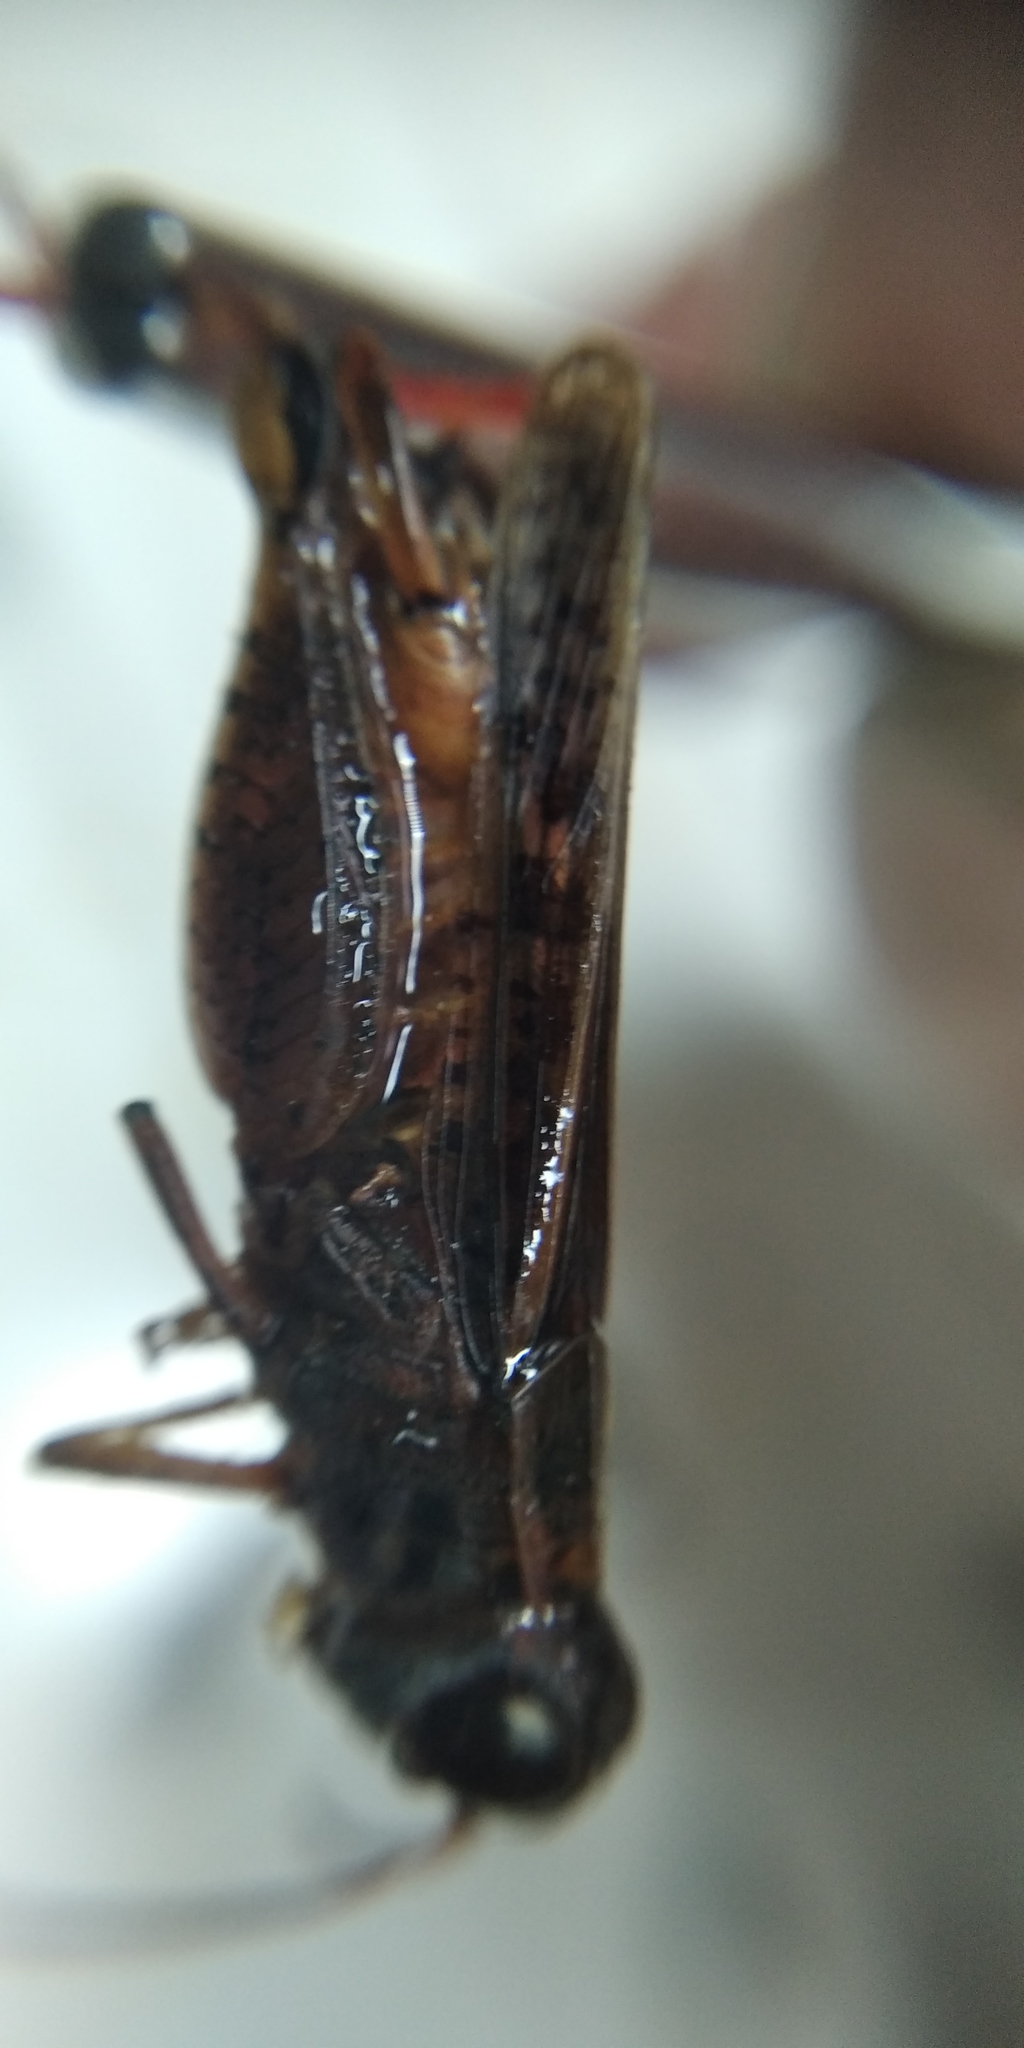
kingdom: Animalia
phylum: Arthropoda
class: Insecta
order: Orthoptera
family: Acrididae
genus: Calliptamus
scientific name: Calliptamus italicus
